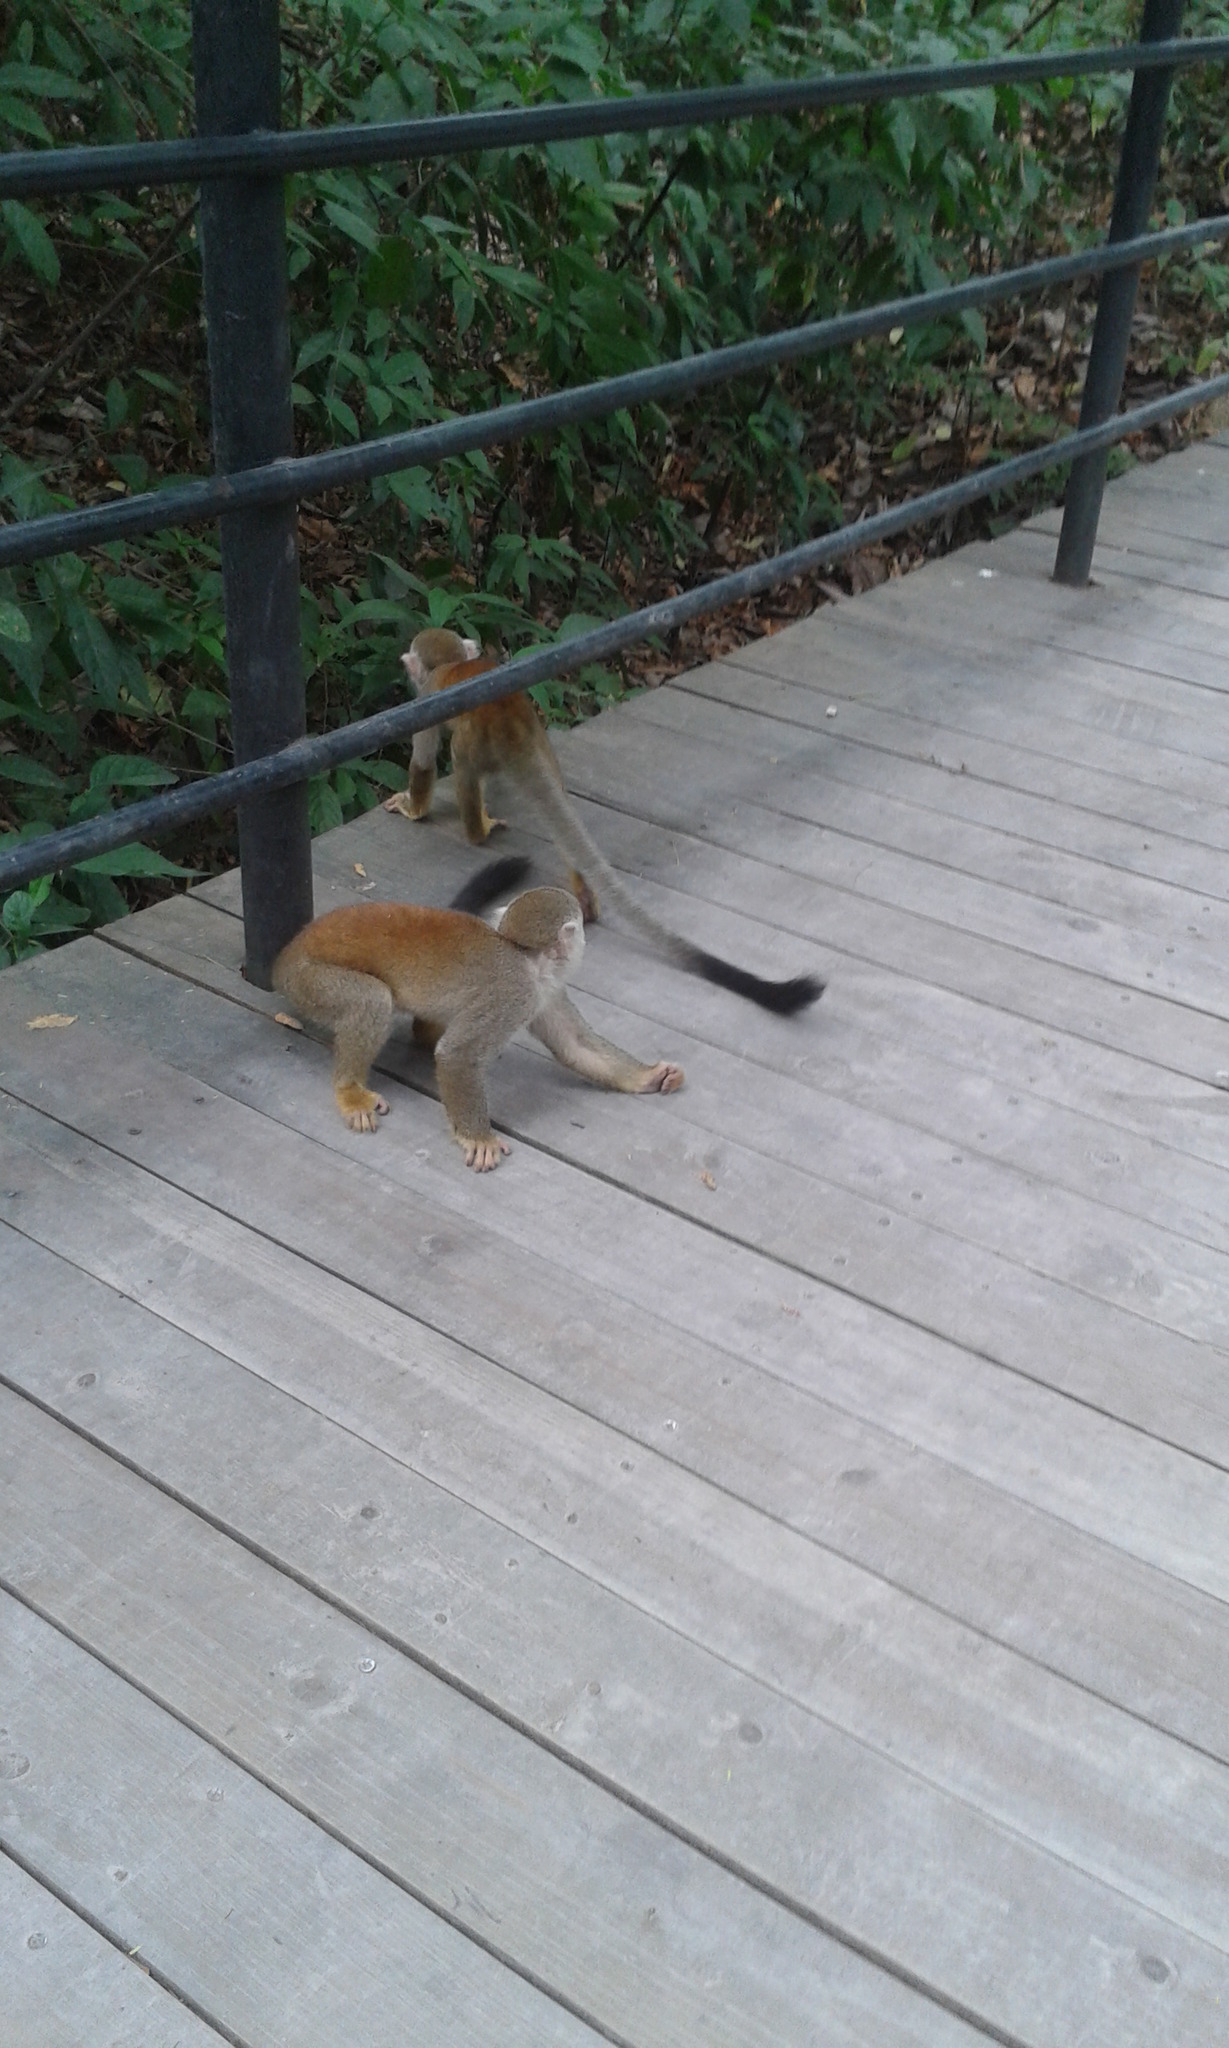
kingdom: Animalia
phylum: Chordata
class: Mammalia
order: Primates
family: Cebidae
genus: Saimiri
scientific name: Saimiri cassiquiarensis
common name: Humboldt’s squirrel monkey
